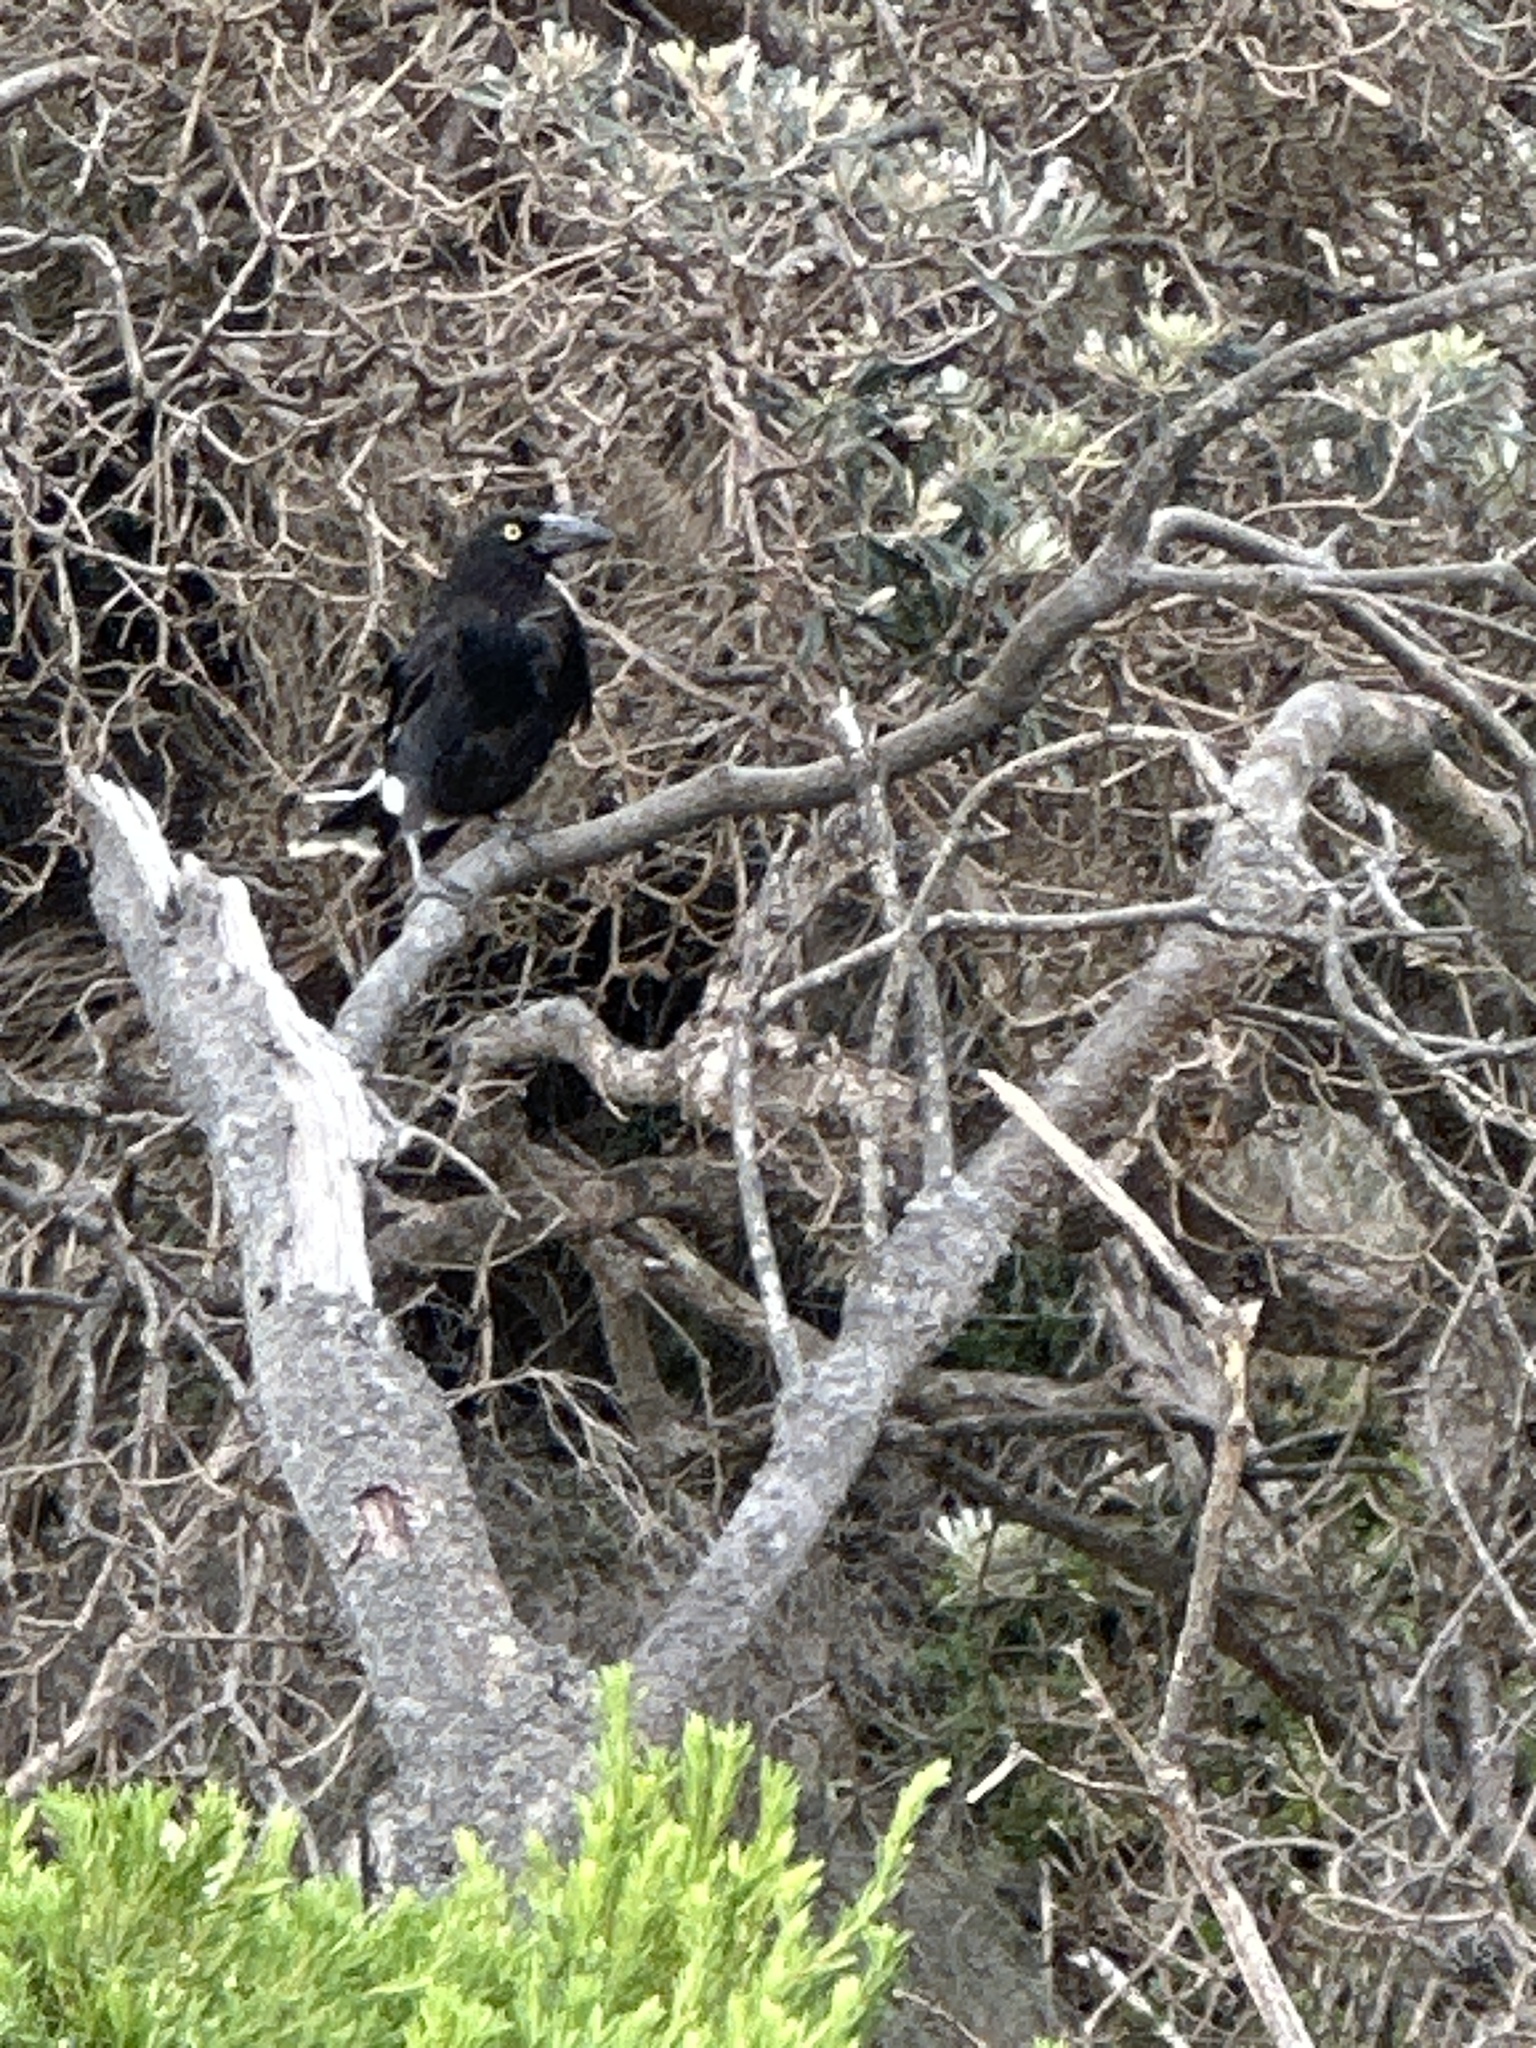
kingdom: Animalia
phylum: Chordata
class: Aves
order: Passeriformes
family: Cracticidae
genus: Strepera
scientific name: Strepera graculina
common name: Pied currawong
